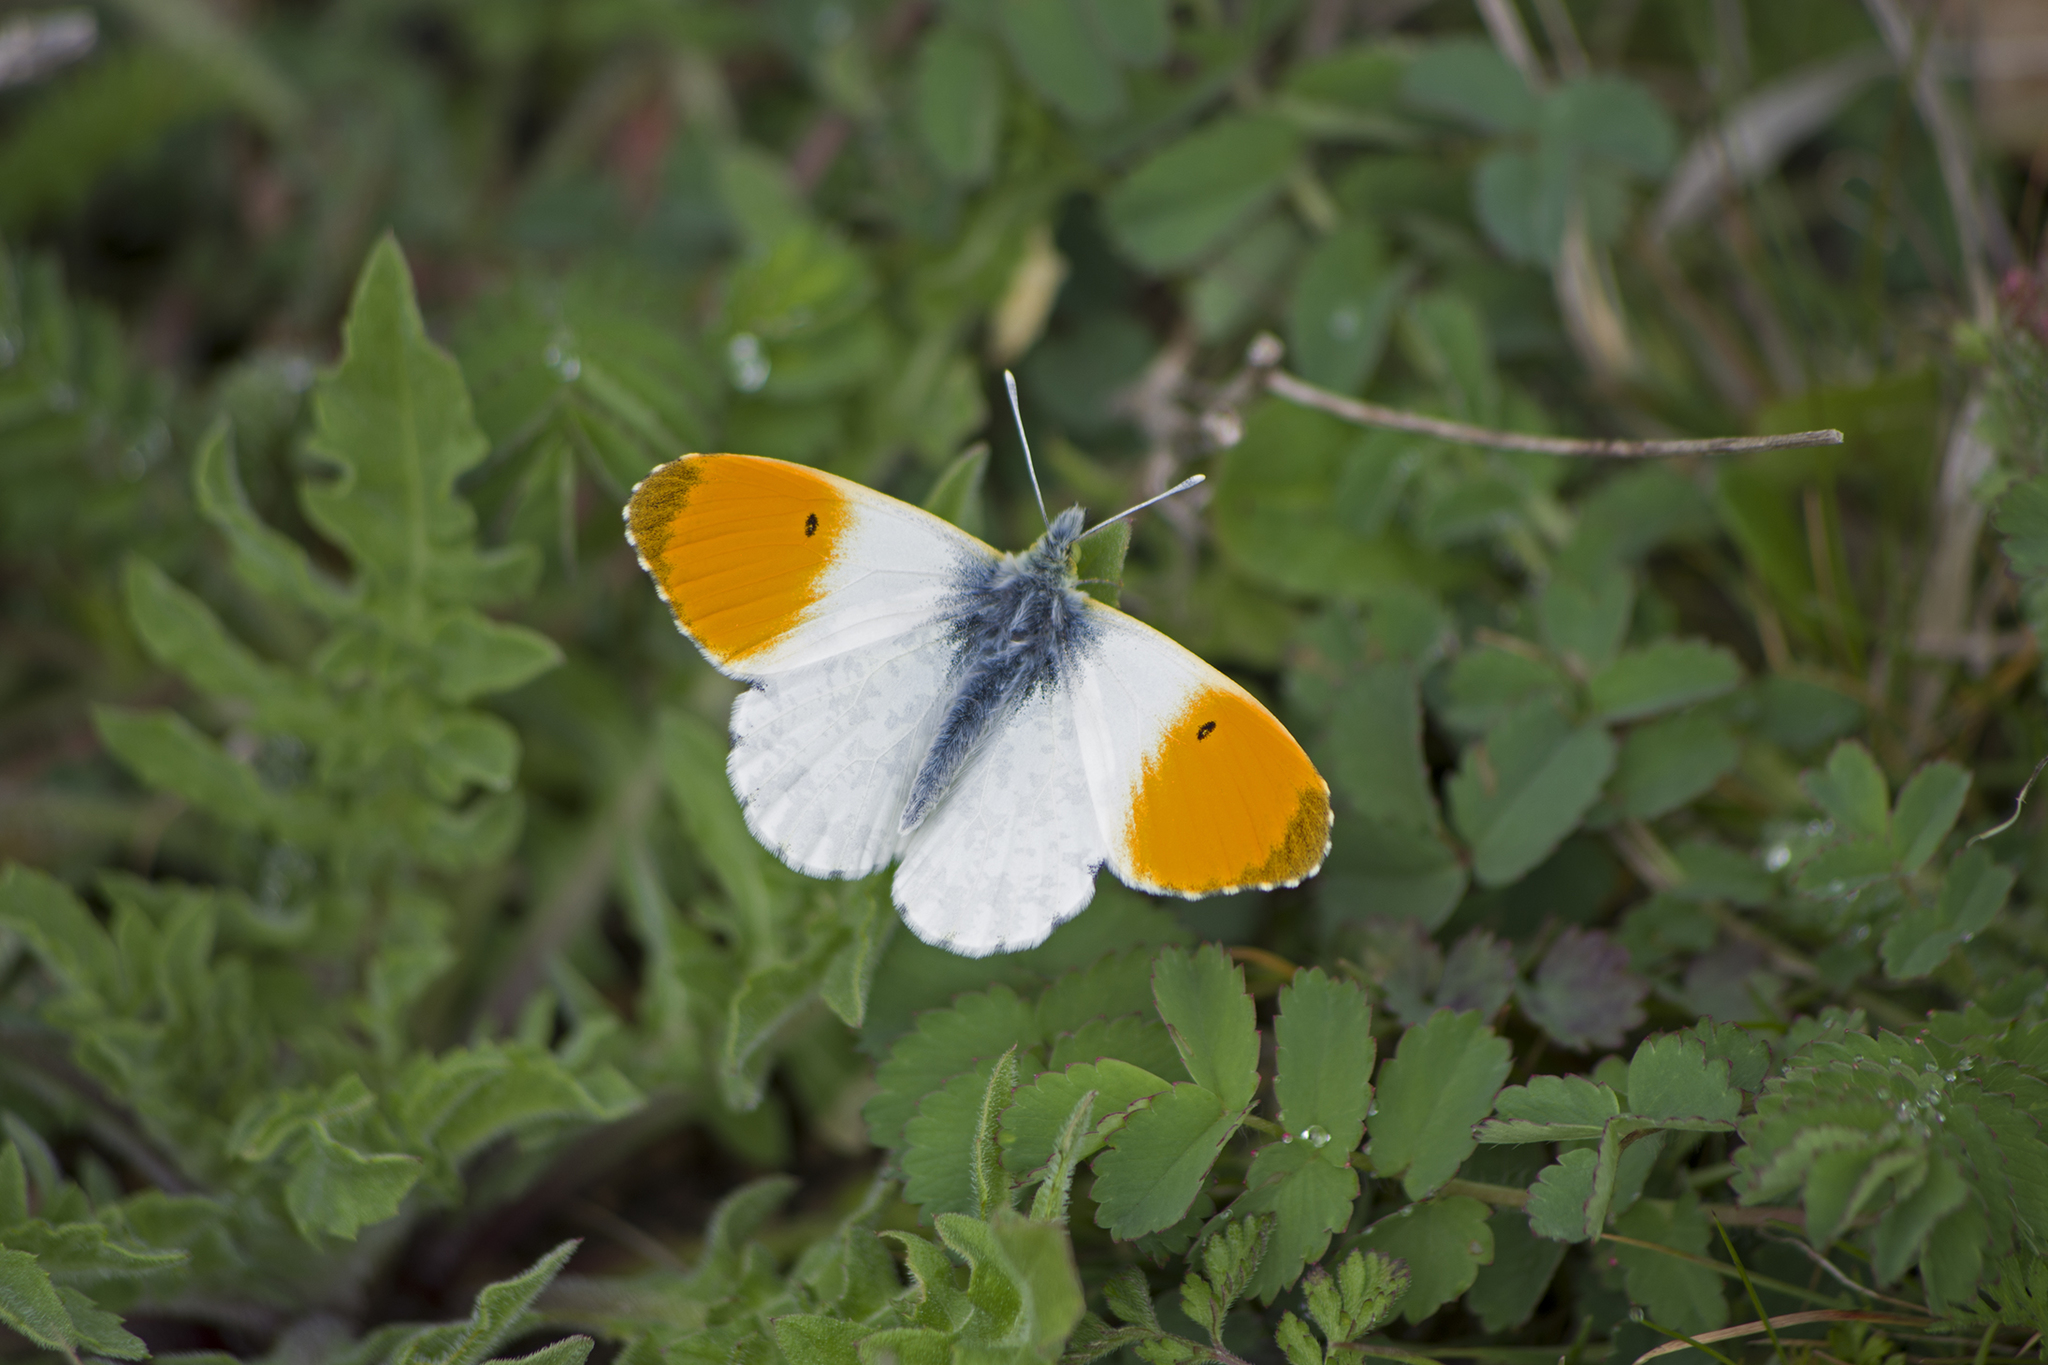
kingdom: Animalia
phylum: Arthropoda
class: Insecta
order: Lepidoptera
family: Pieridae
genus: Anthocharis
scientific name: Anthocharis cardamines
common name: Orange-tip
